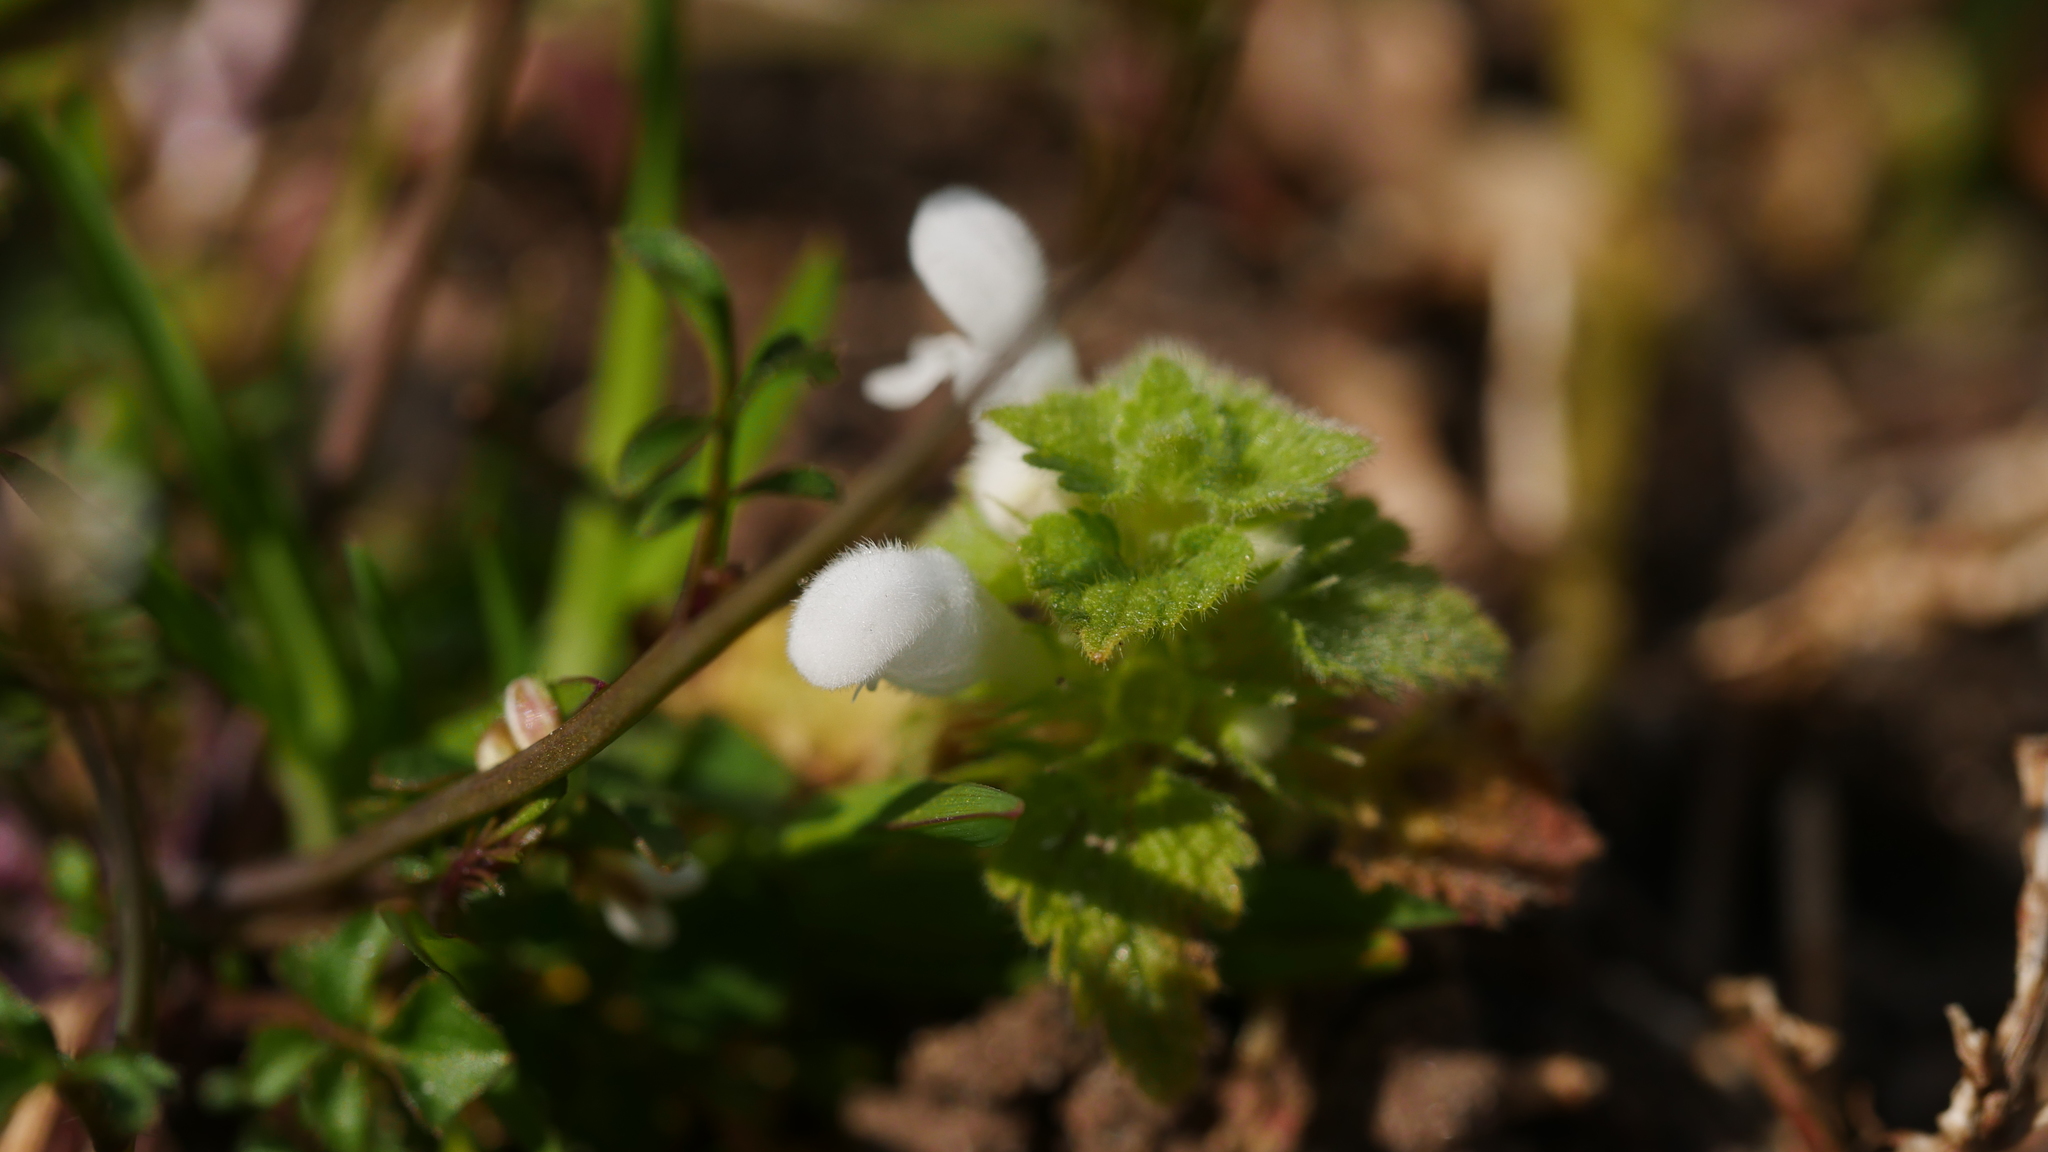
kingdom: Plantae
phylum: Tracheophyta
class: Magnoliopsida
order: Lamiales
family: Lamiaceae
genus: Lamium
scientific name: Lamium purpureum
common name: Red dead-nettle
